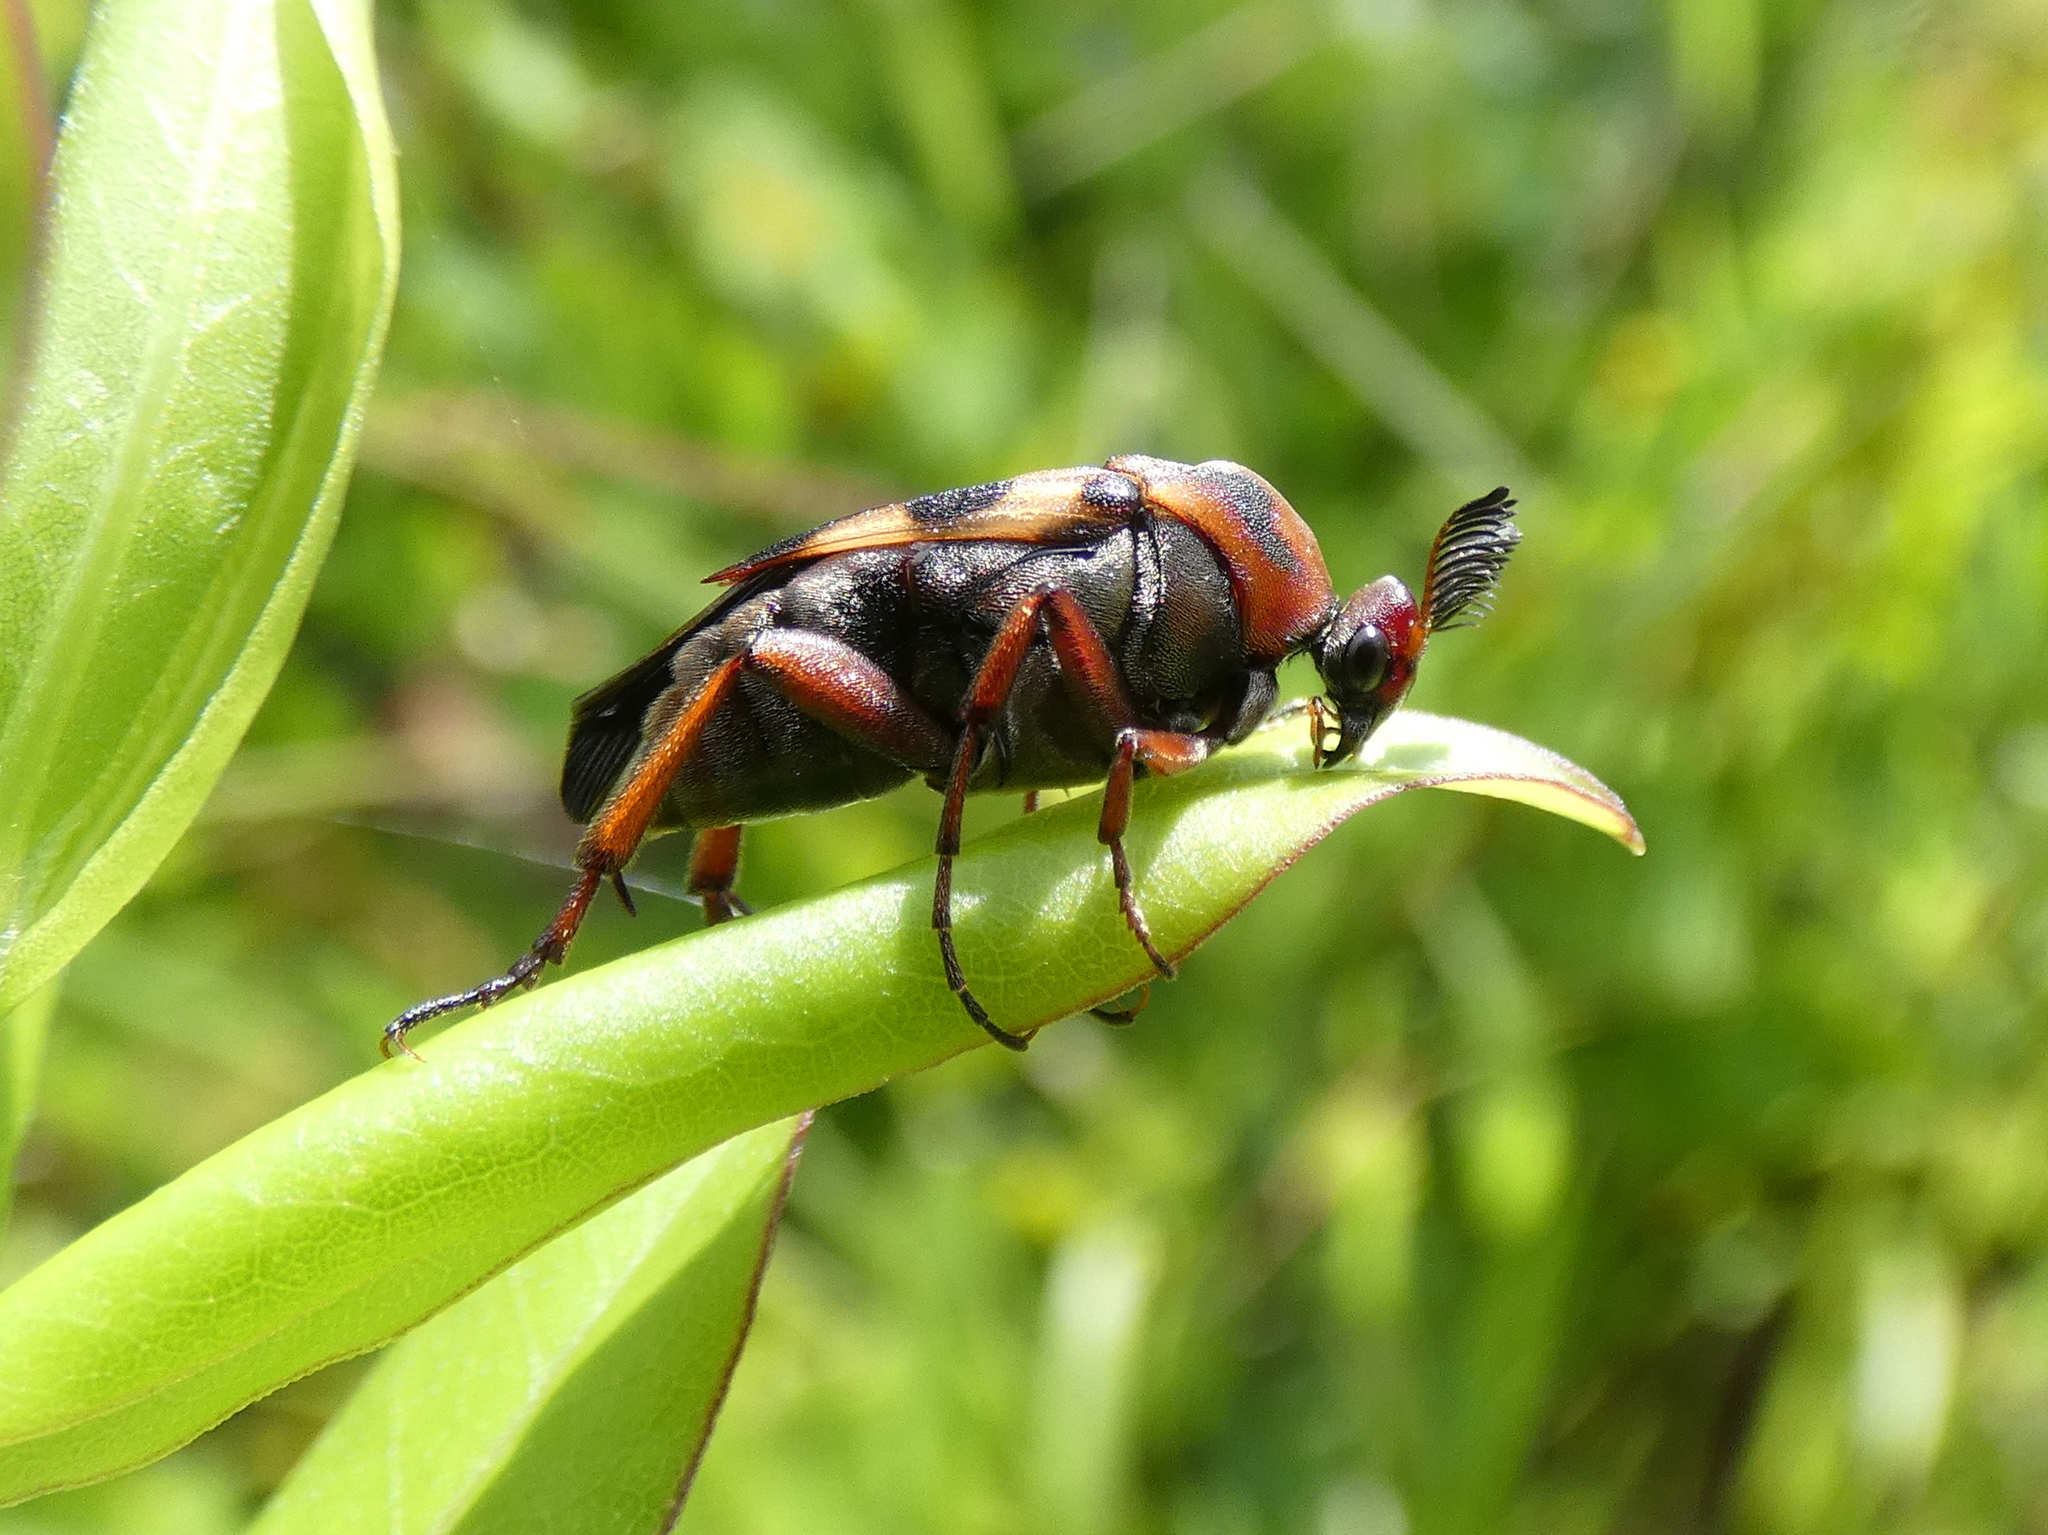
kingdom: Animalia
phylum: Arthropoda
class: Insecta
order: Coleoptera
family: Ripiphoridae
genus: Macrosiagon
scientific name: Macrosiagon octomaculatus
